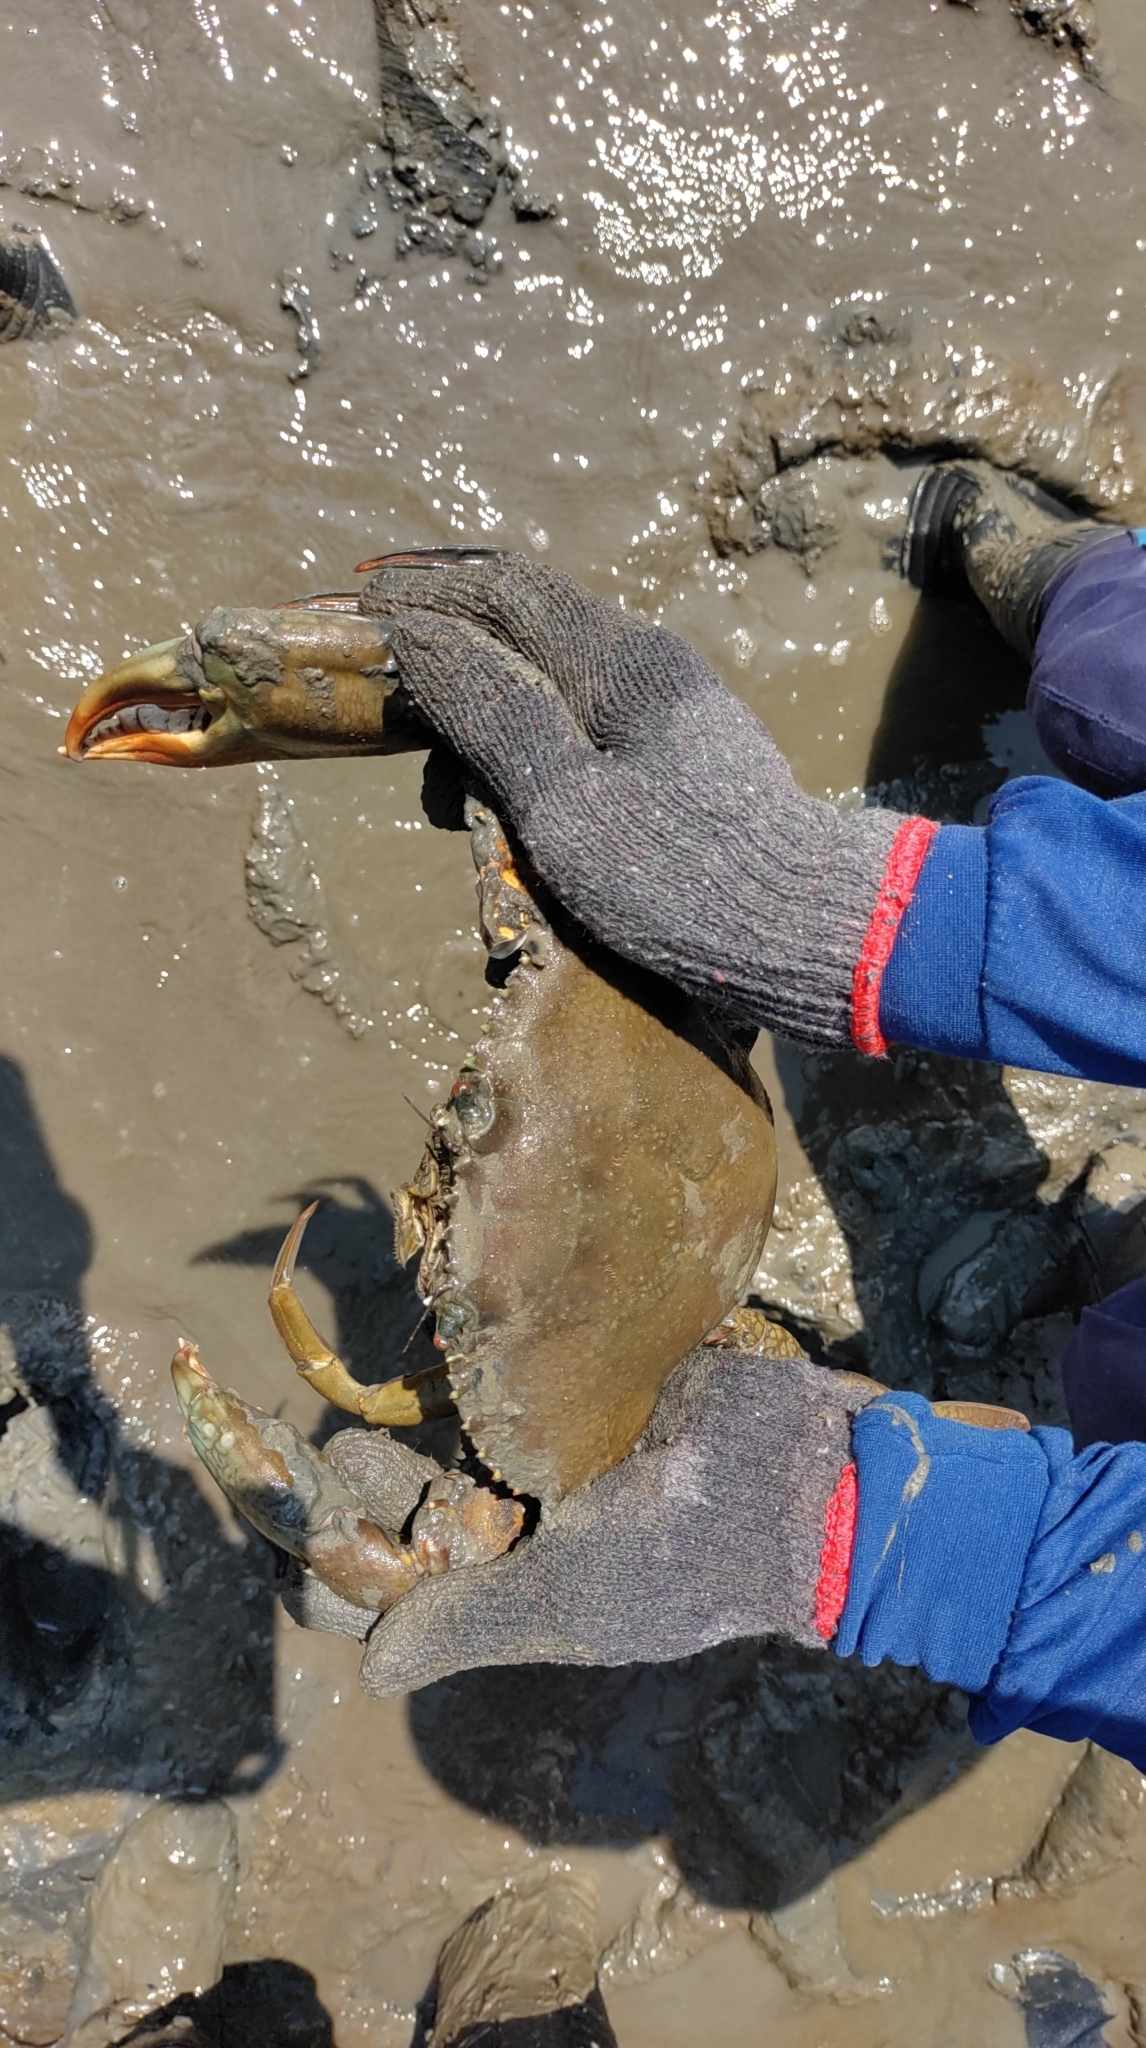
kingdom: Animalia
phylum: Arthropoda
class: Malacostraca
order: Decapoda
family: Portunidae
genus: Scylla
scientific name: Scylla serrata
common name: Giant mud crab
